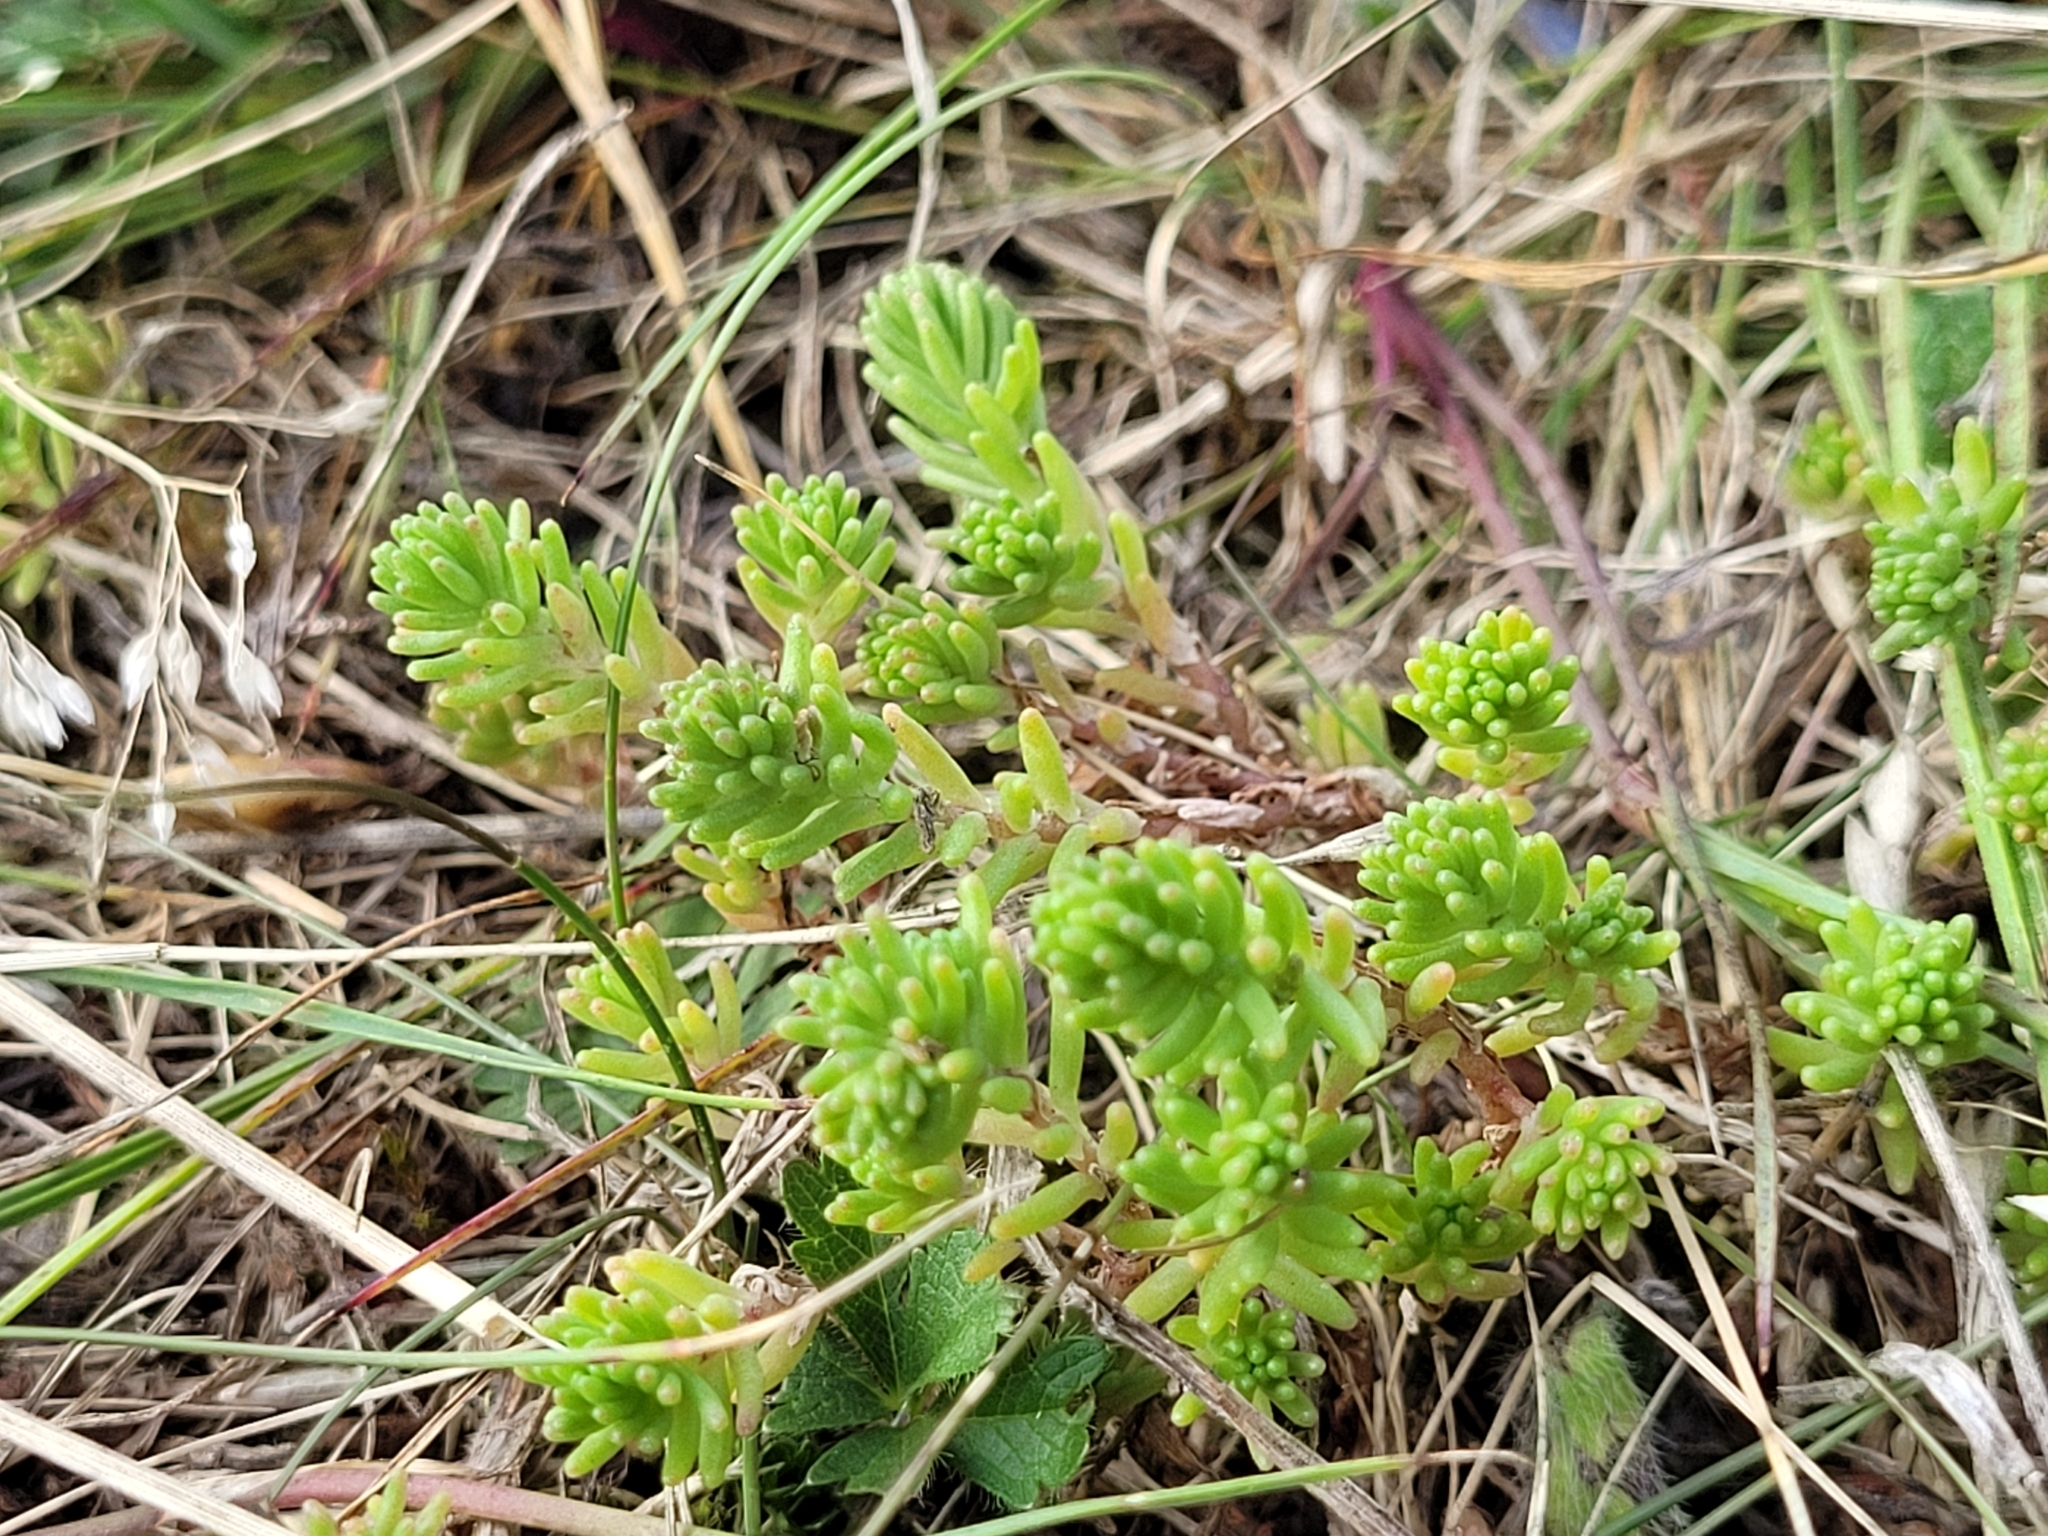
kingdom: Plantae
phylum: Tracheophyta
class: Magnoliopsida
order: Saxifragales
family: Crassulaceae
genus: Sedum
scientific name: Sedum sexangulare
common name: Tasteless stonecrop
